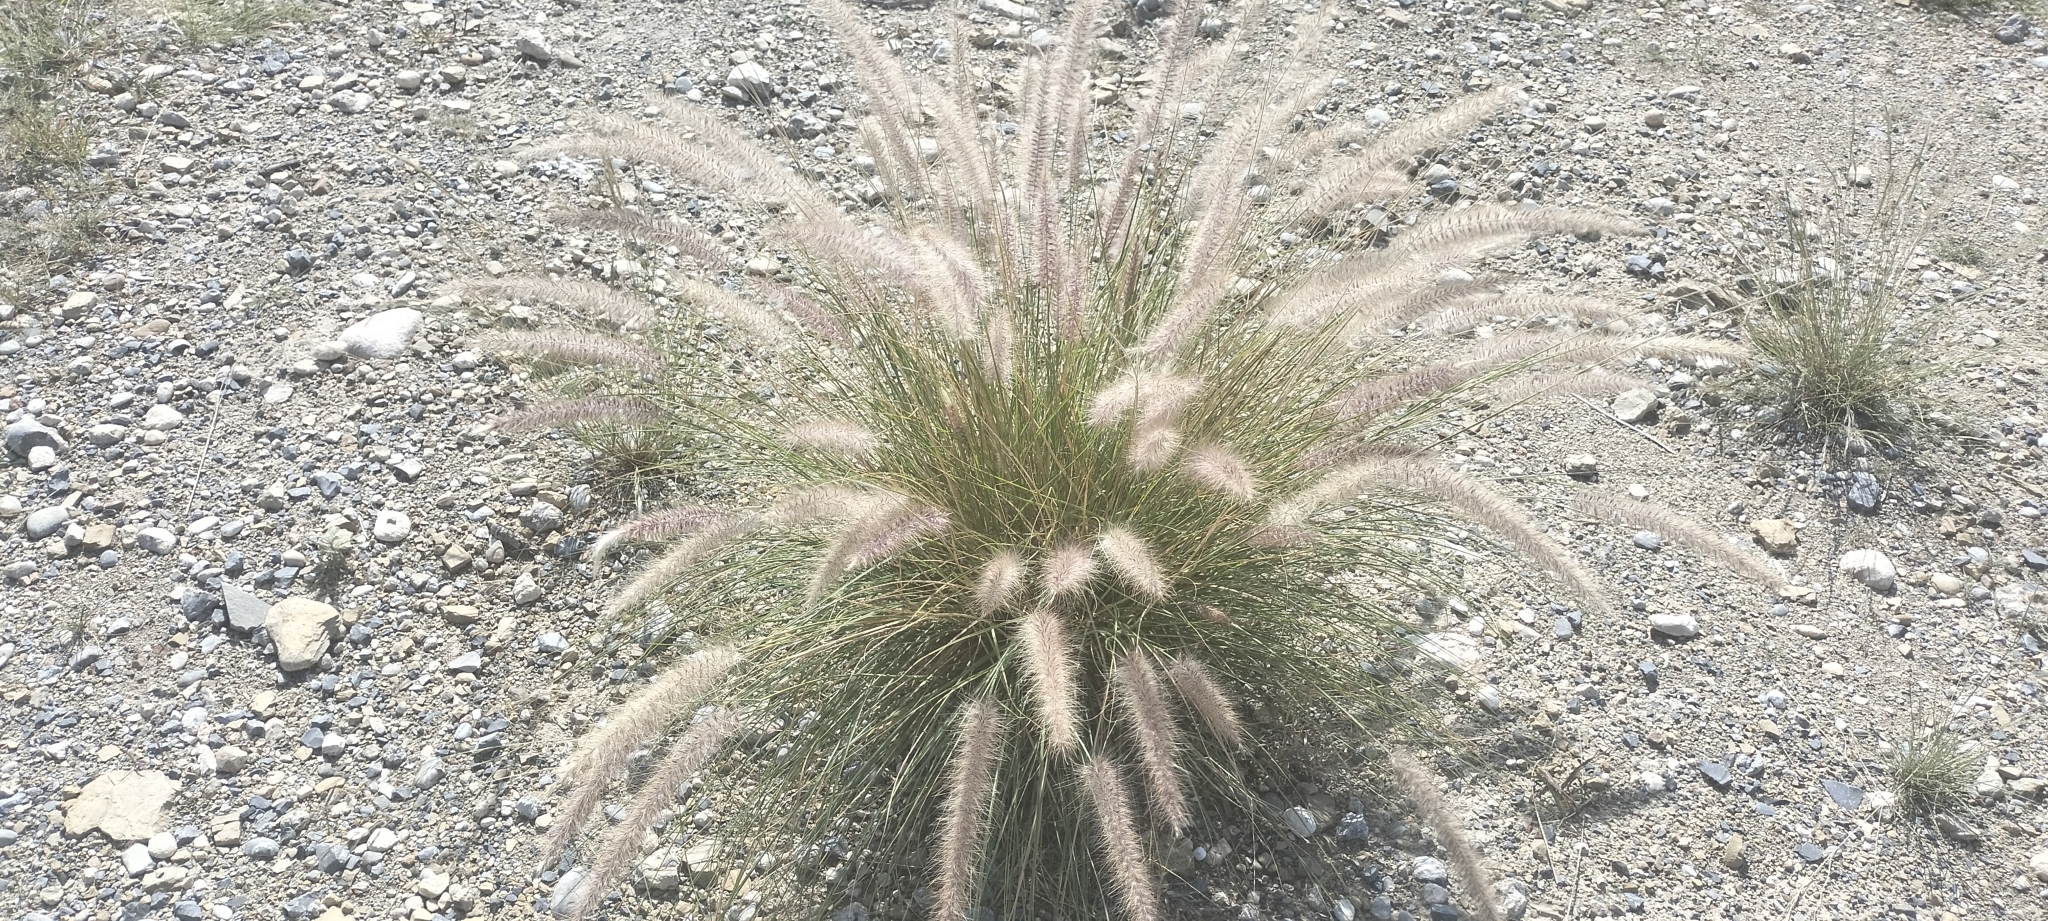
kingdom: Plantae
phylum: Tracheophyta
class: Liliopsida
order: Poales
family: Poaceae
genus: Cenchrus
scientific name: Cenchrus setaceus
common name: Crimson fountaingrass
